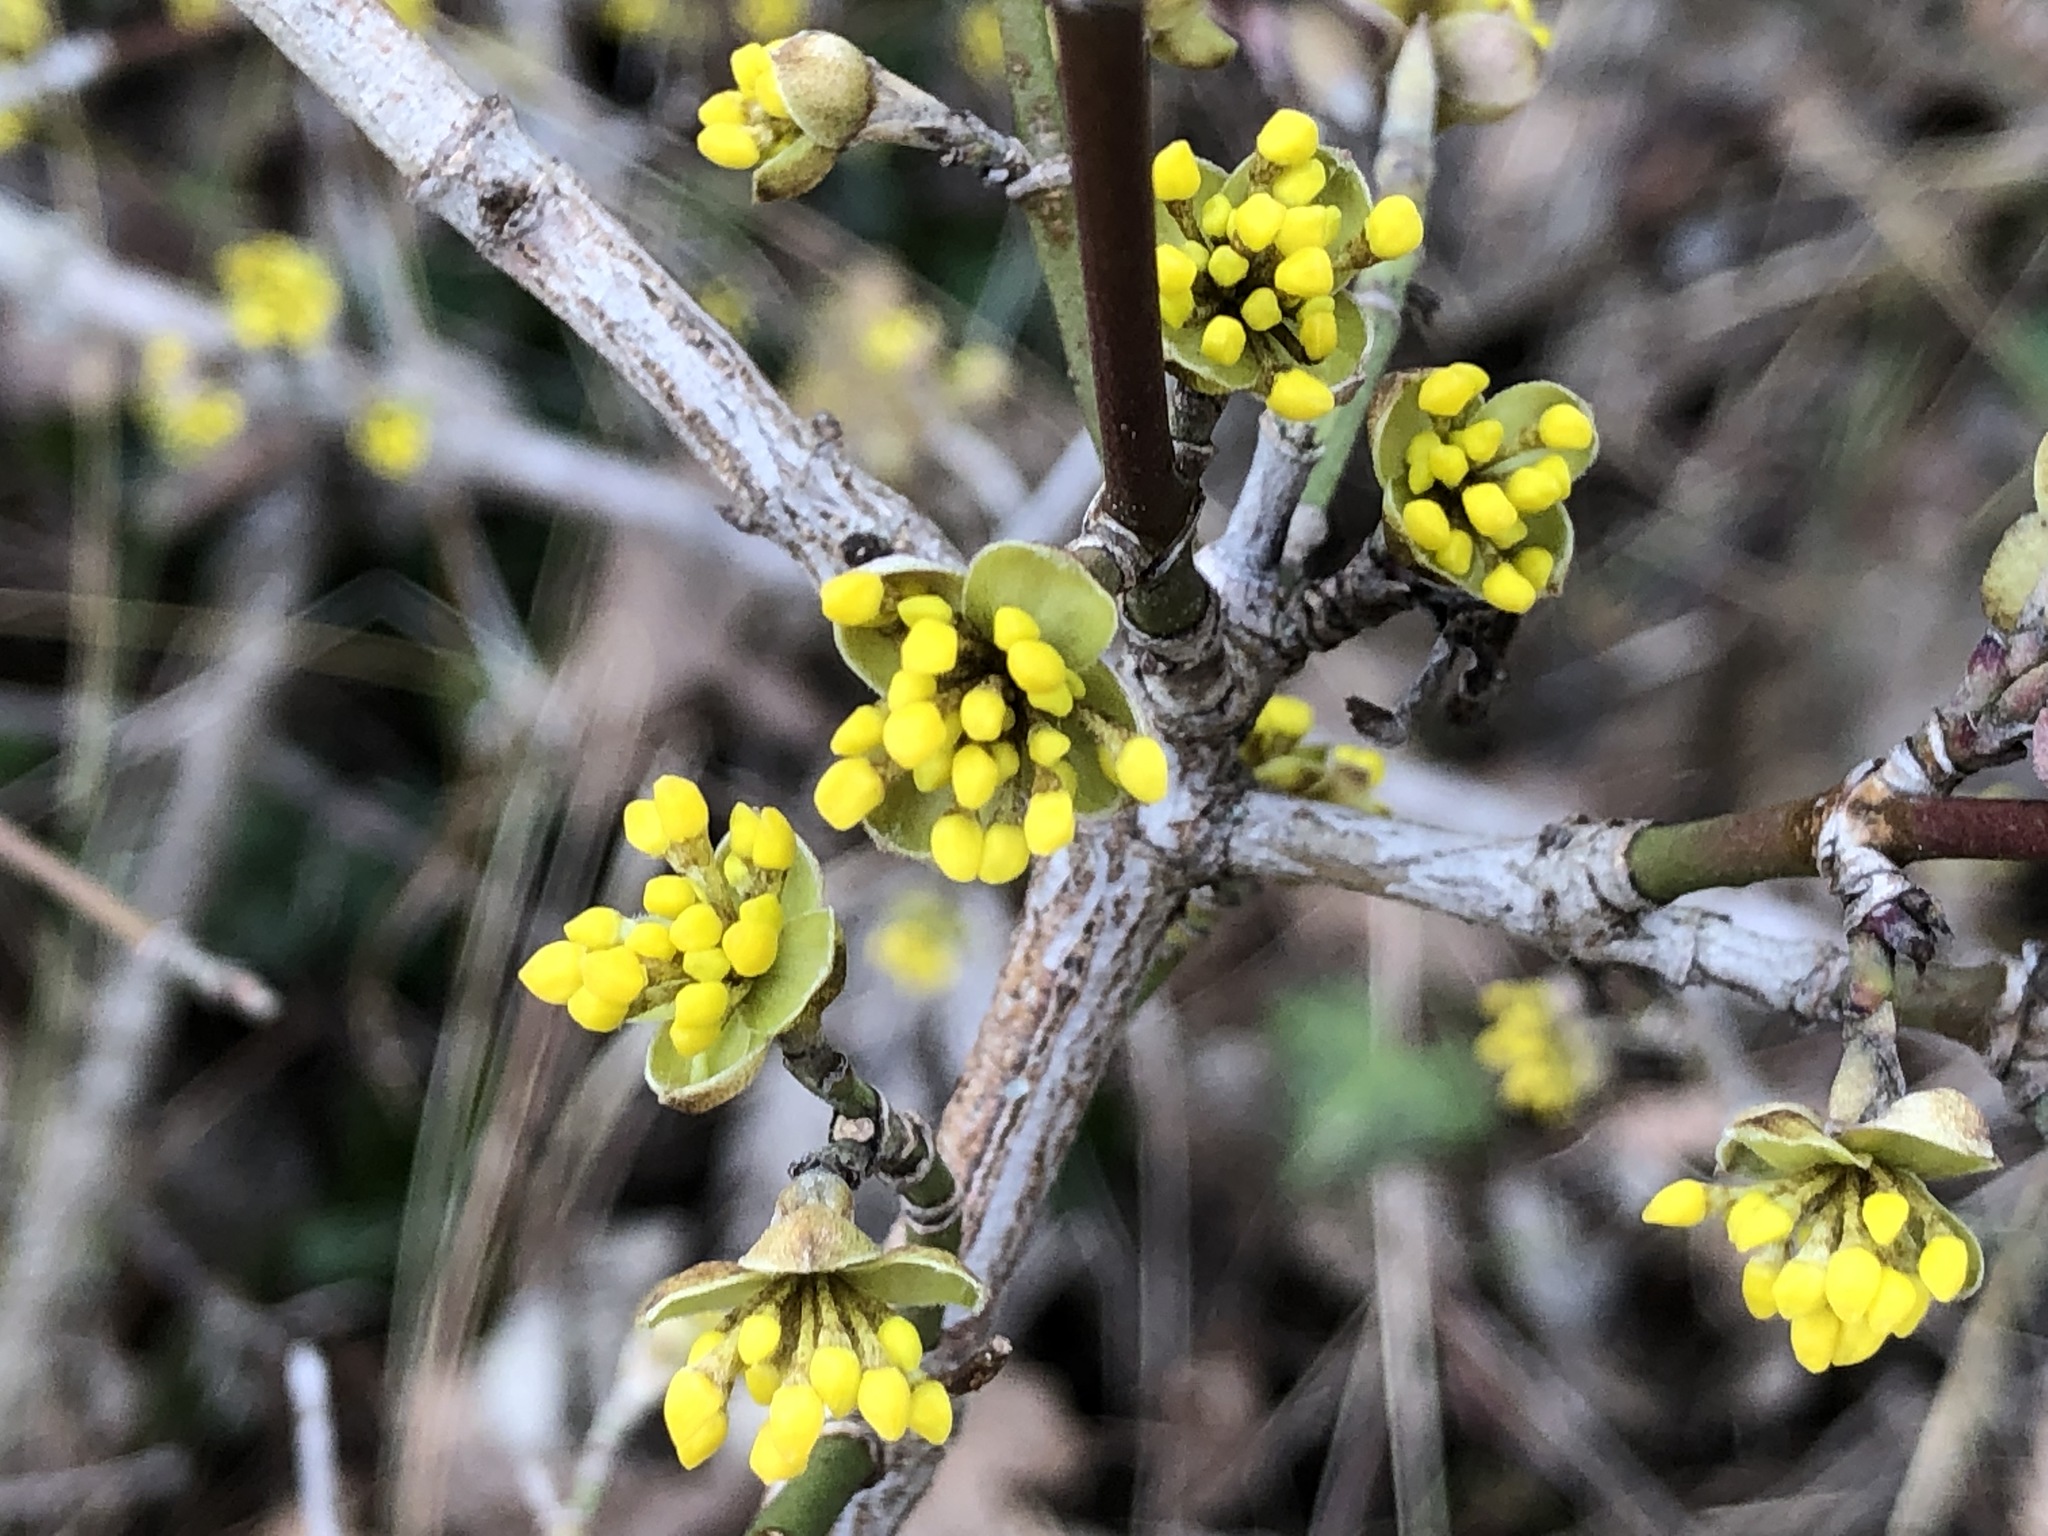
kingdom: Plantae
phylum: Tracheophyta
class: Magnoliopsida
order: Cornales
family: Cornaceae
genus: Cornus
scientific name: Cornus mas
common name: Cornelian-cherry
